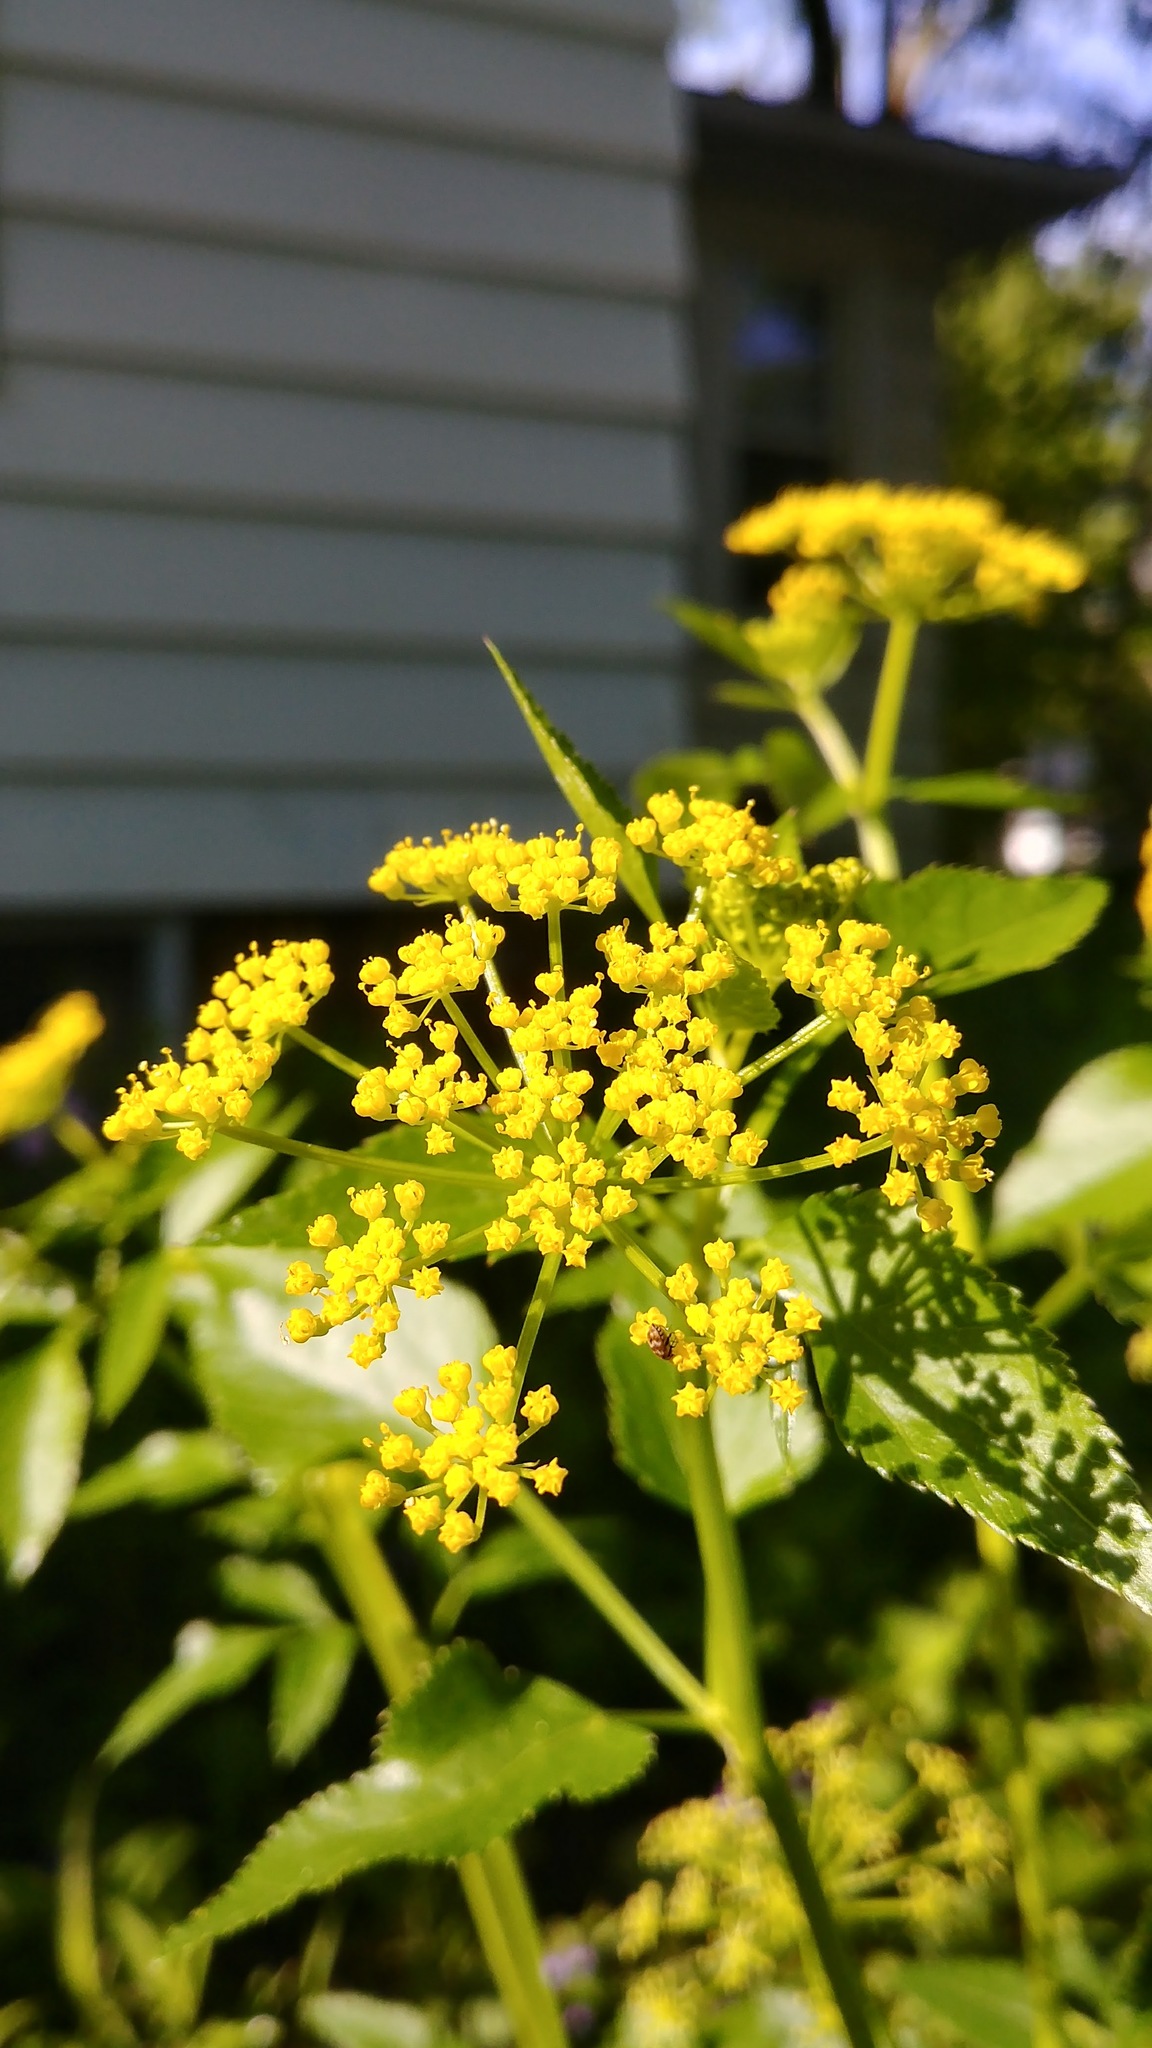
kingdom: Plantae
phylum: Tracheophyta
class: Magnoliopsida
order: Apiales
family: Apiaceae
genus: Zizia
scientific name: Zizia aurea
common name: Golden alexanders
